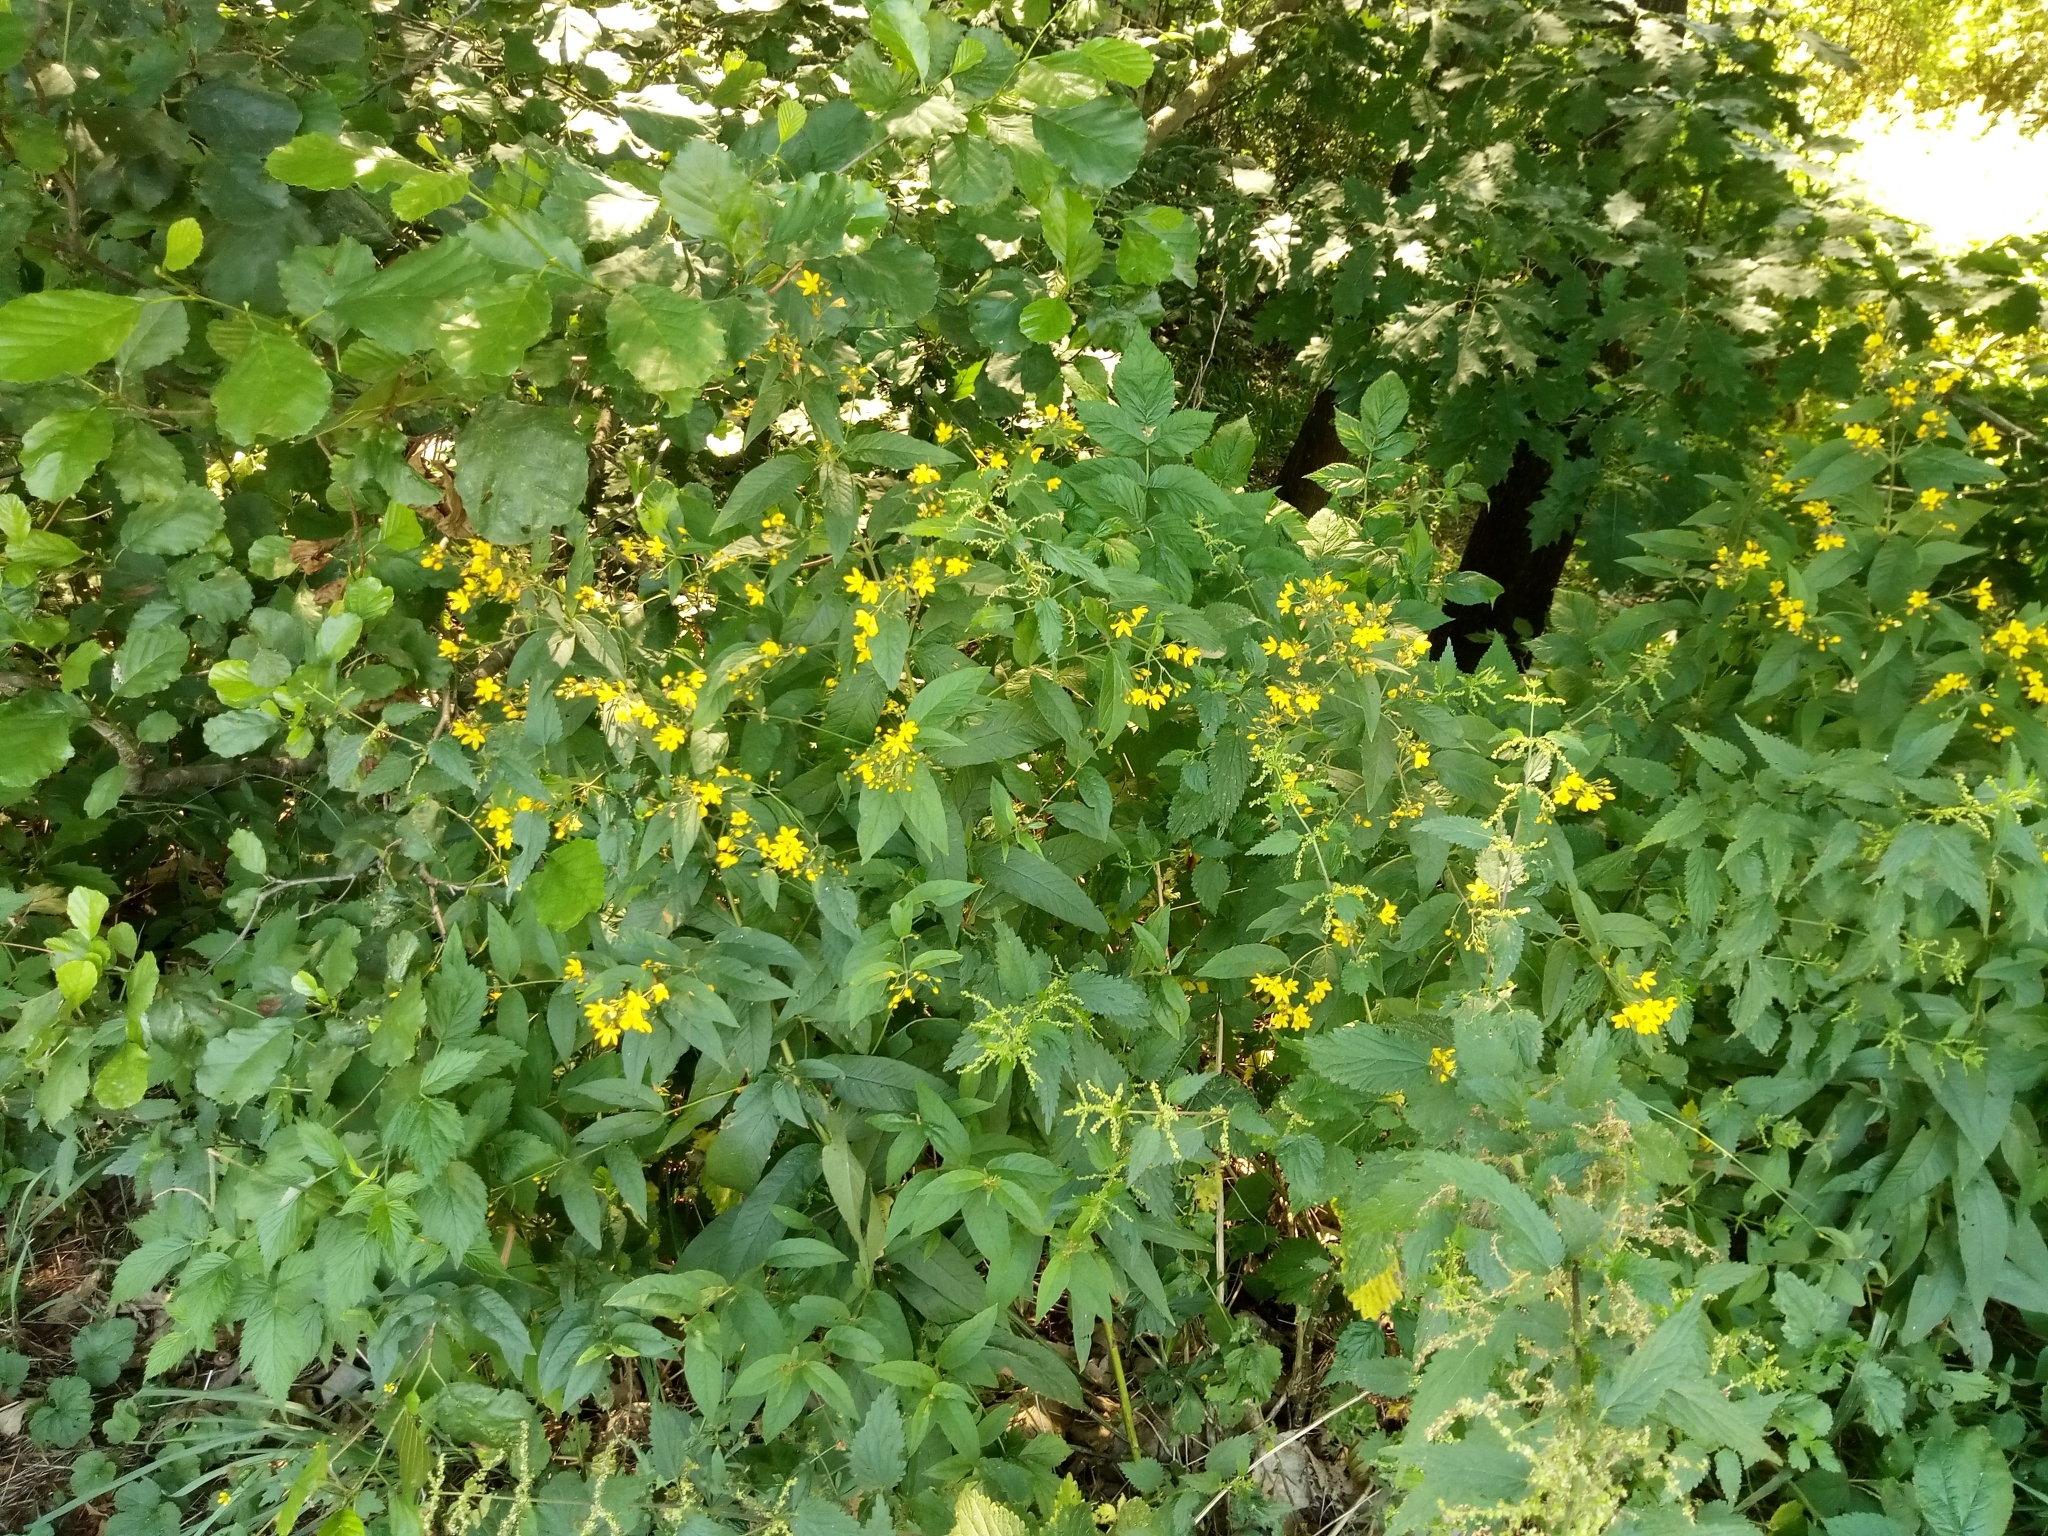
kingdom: Plantae
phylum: Tracheophyta
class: Magnoliopsida
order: Ericales
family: Primulaceae
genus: Lysimachia
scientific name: Lysimachia vulgaris
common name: Yellow loosestrife
